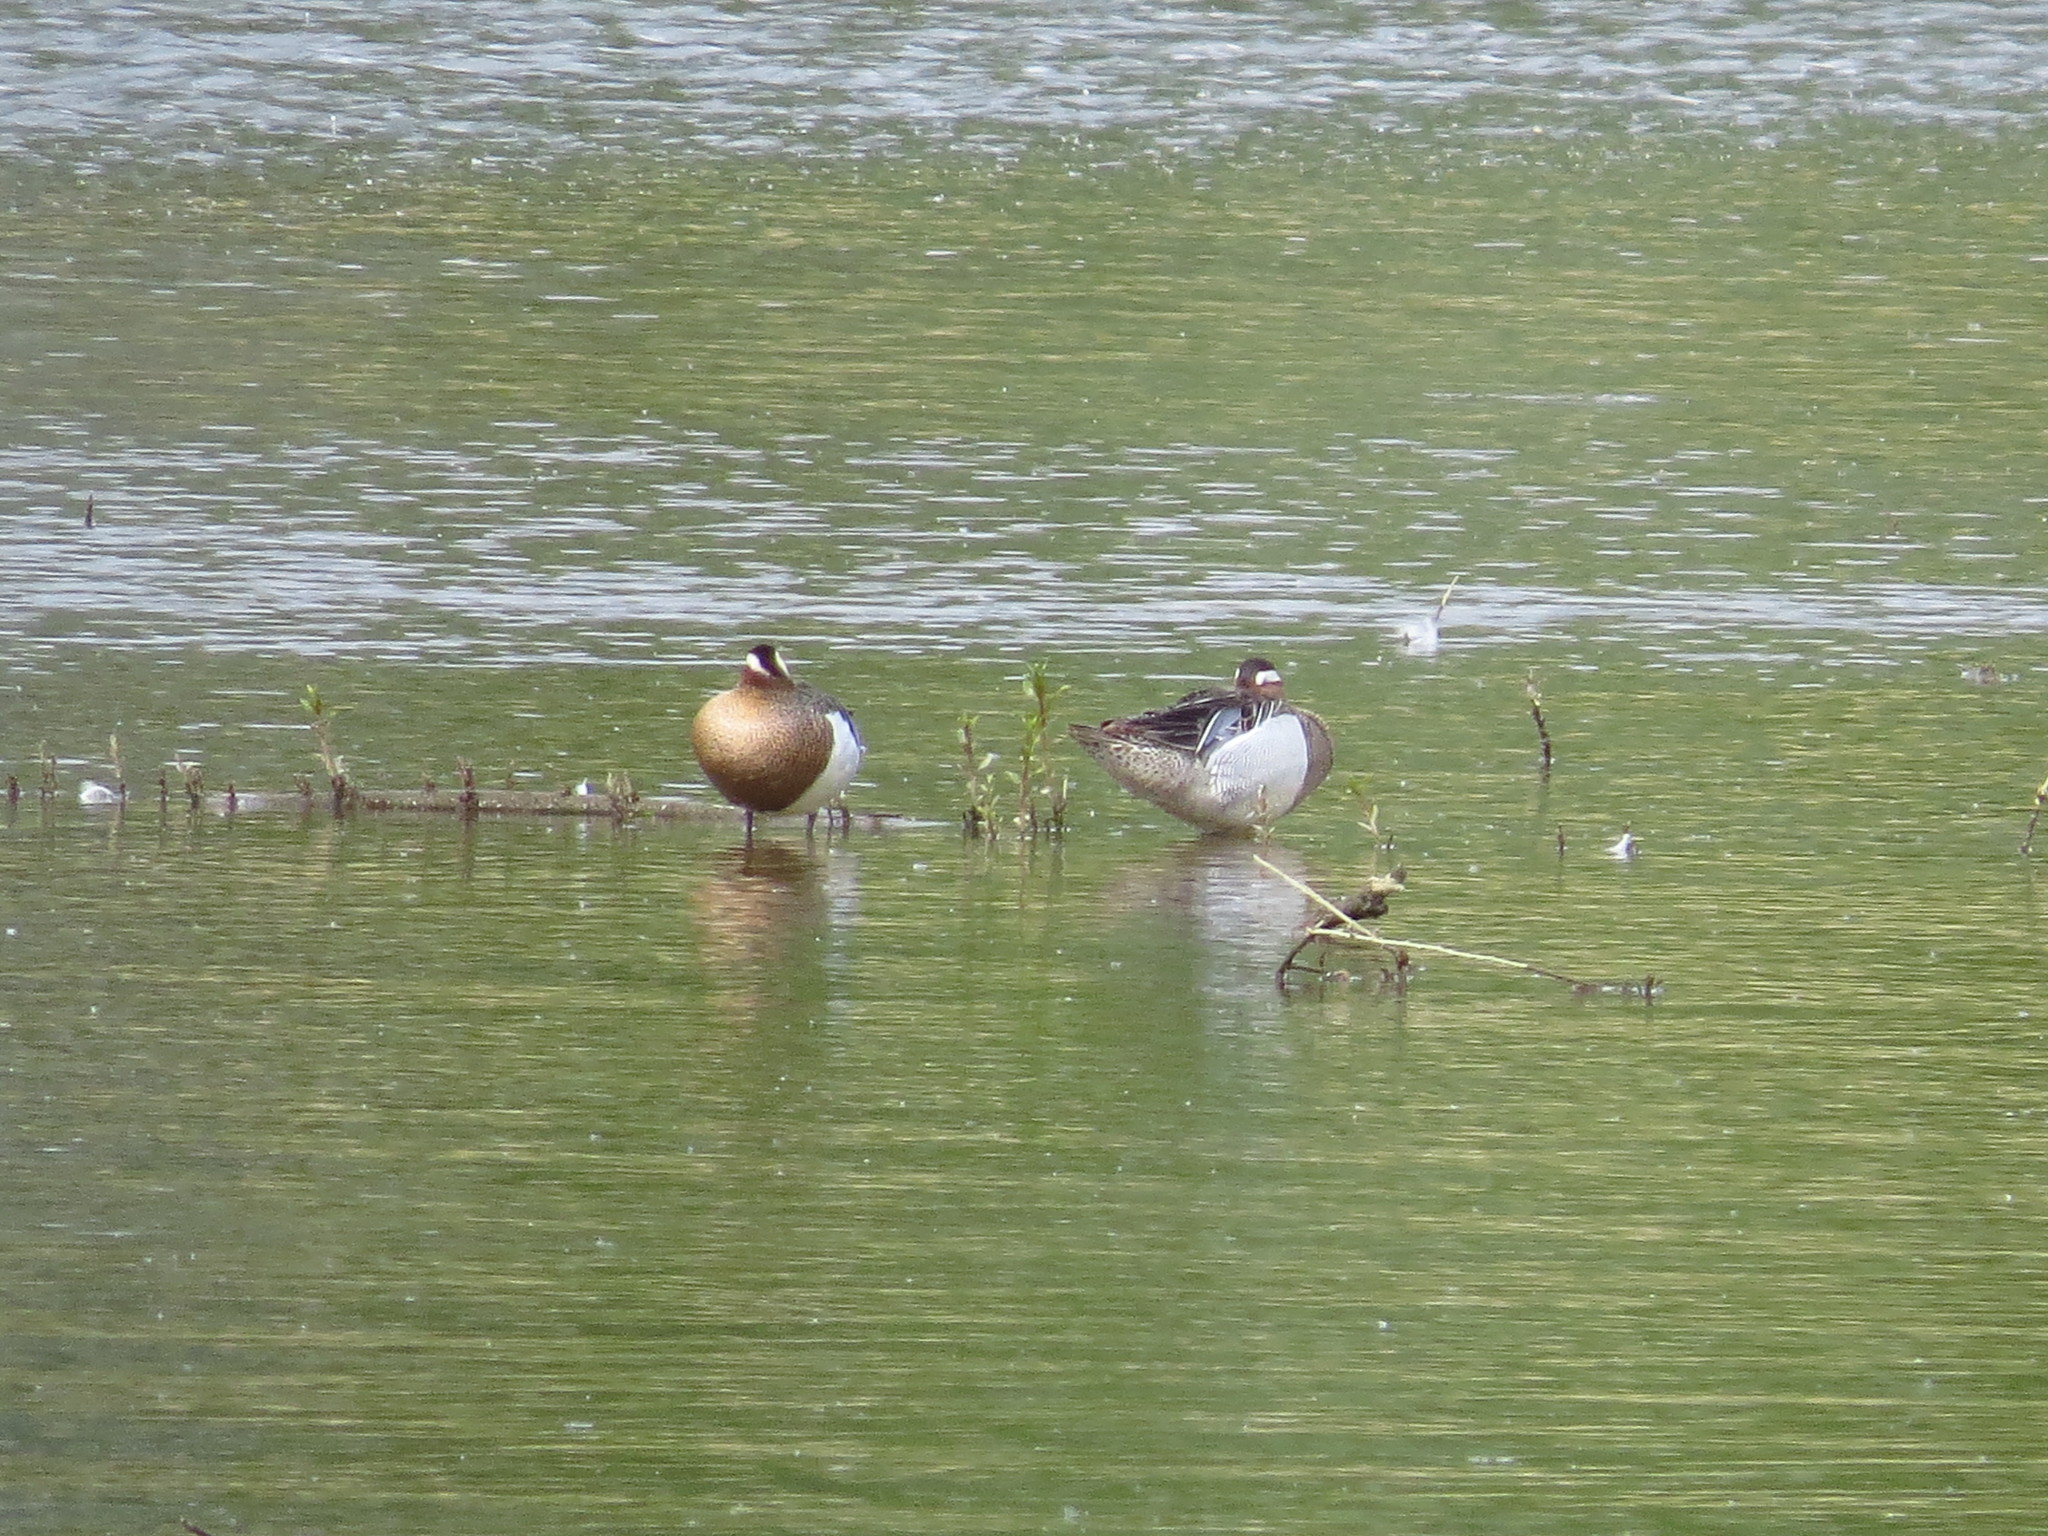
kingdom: Animalia
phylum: Chordata
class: Aves
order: Anseriformes
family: Anatidae
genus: Spatula
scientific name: Spatula querquedula
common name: Garganey
